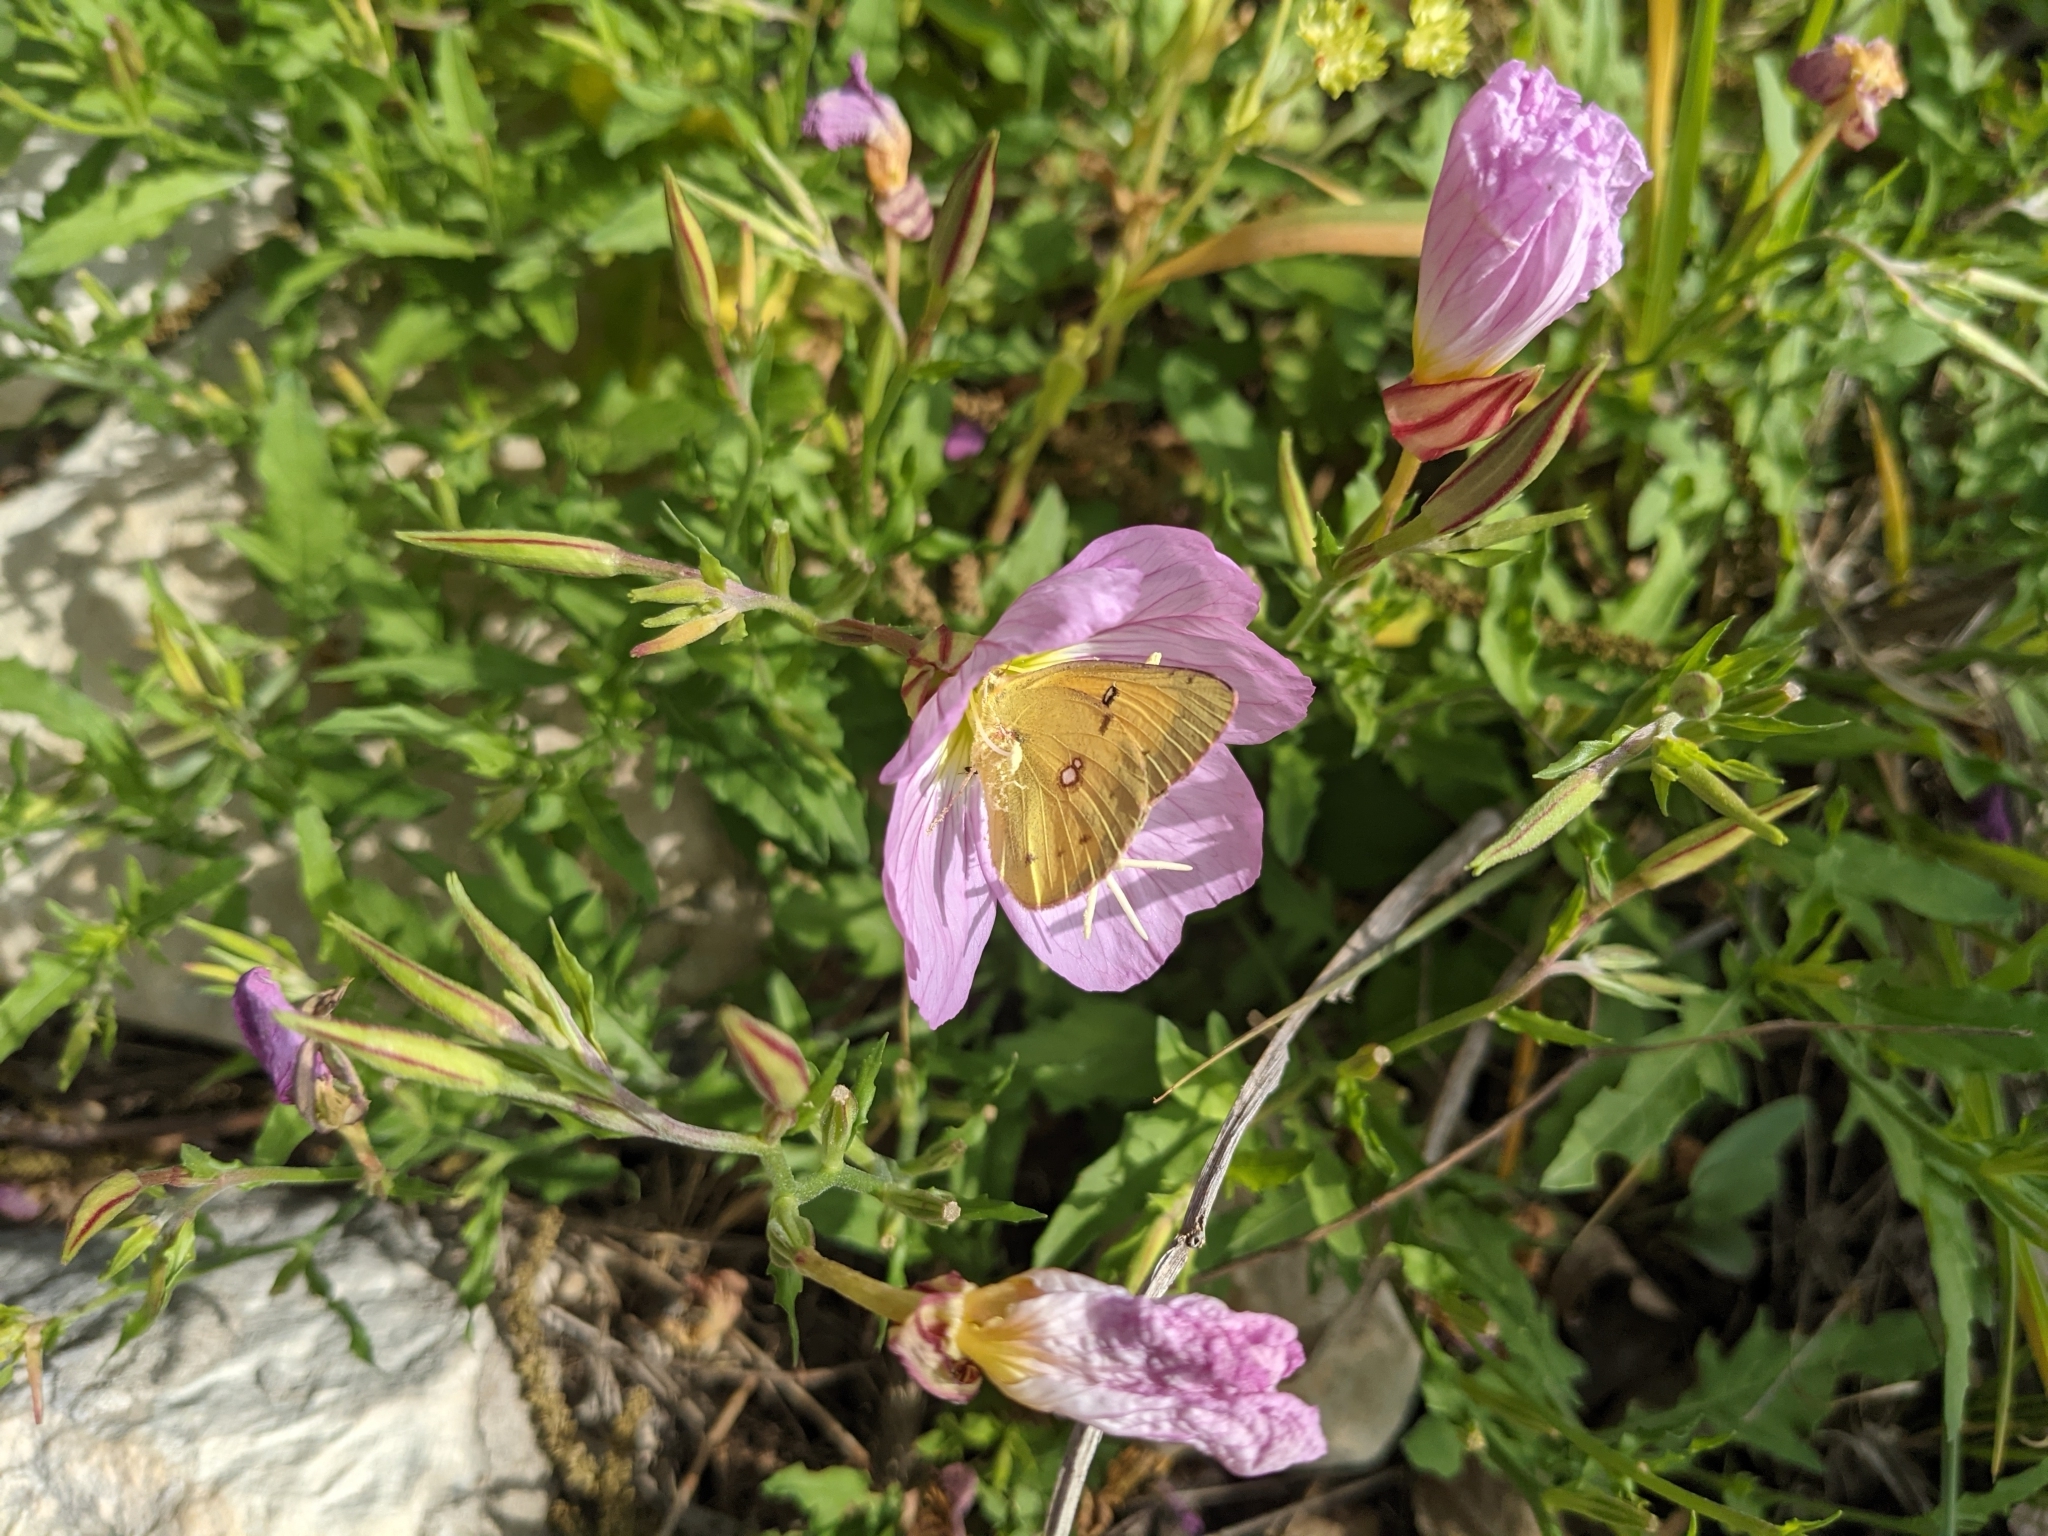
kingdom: Animalia
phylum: Arthropoda
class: Insecta
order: Lepidoptera
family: Pieridae
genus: Colias
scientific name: Colias eurytheme
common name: Alfalfa butterfly
